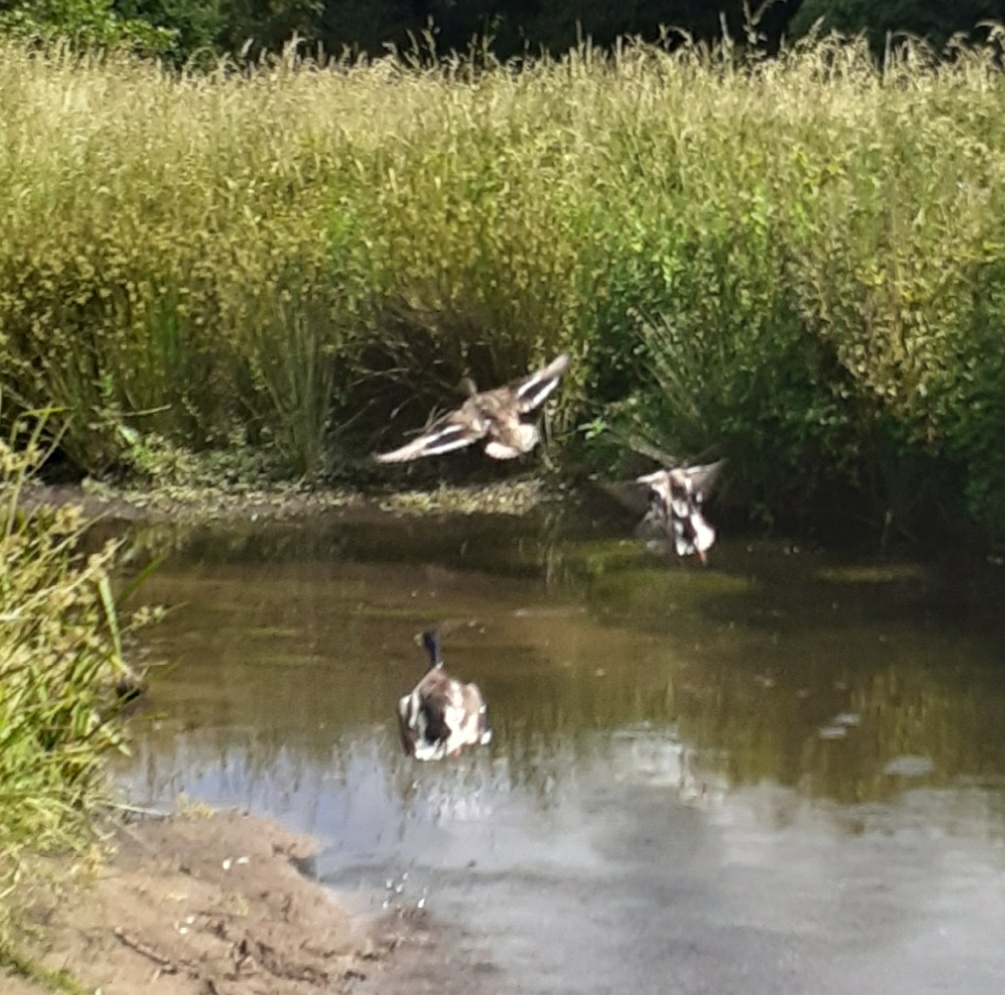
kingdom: Animalia
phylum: Chordata
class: Aves
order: Anseriformes
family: Anatidae
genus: Anas
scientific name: Anas platyrhynchos
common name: Mallard
